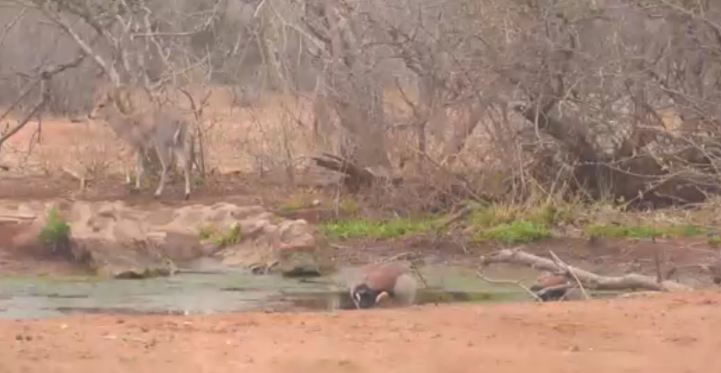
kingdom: Animalia
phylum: Chordata
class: Aves
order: Anseriformes
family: Anatidae
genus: Alopochen
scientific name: Alopochen aegyptiaca
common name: Egyptian goose
